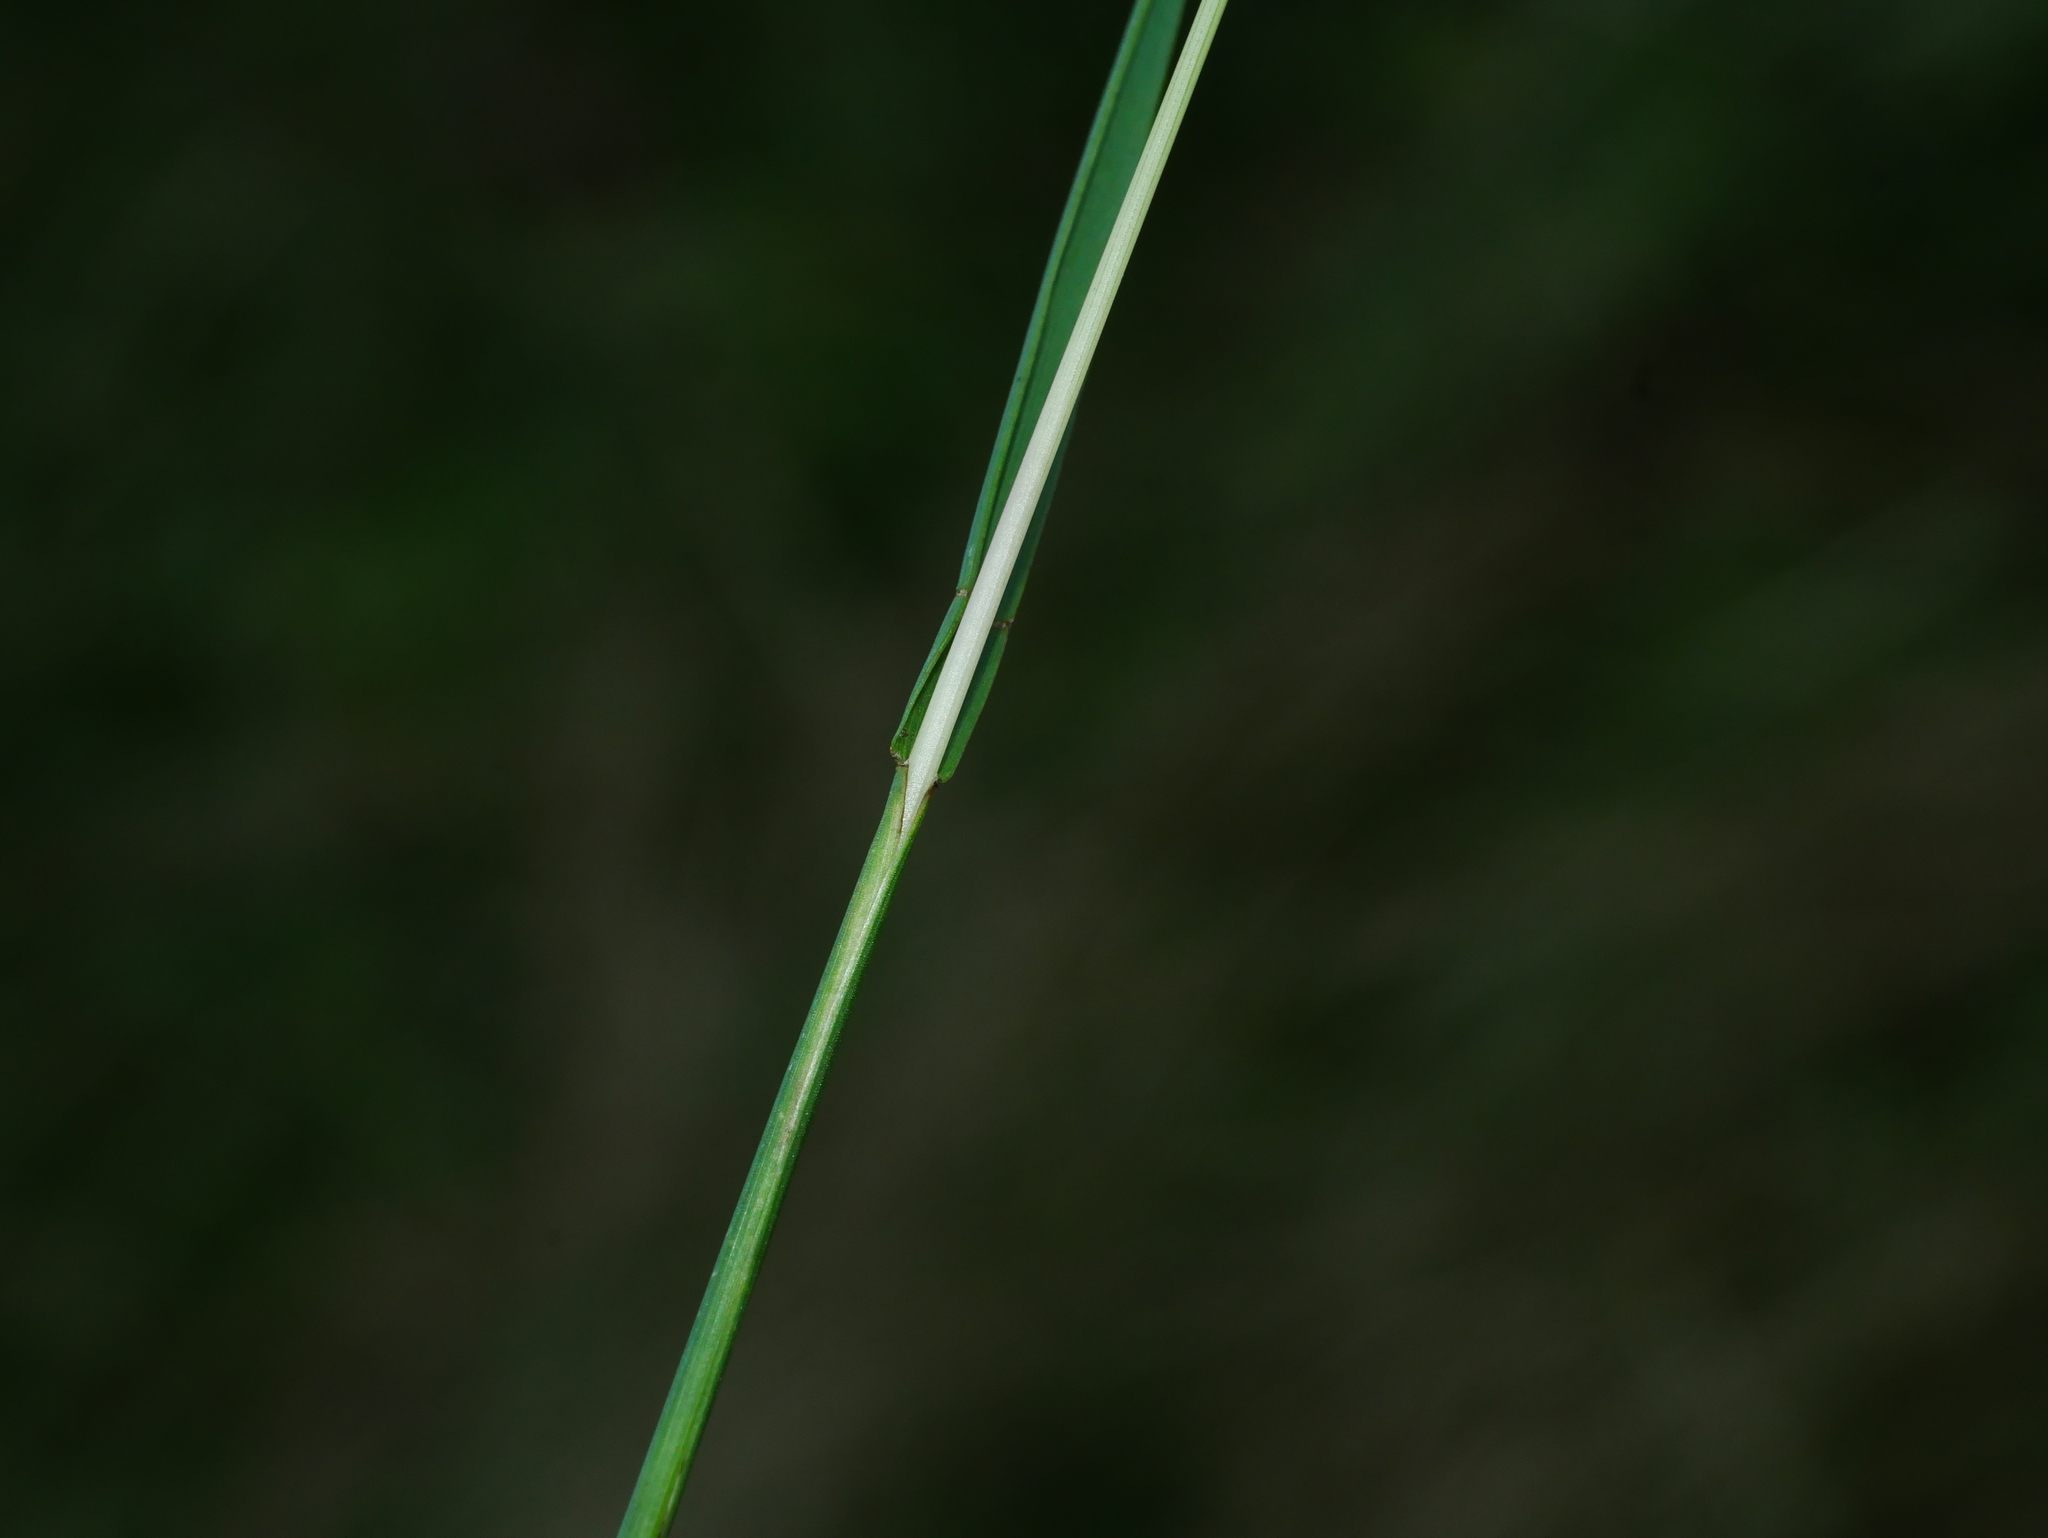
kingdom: Plantae
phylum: Tracheophyta
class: Liliopsida
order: Poales
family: Poaceae
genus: Sacciolepis
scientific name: Sacciolepis indica
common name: Glenwoodgrass
